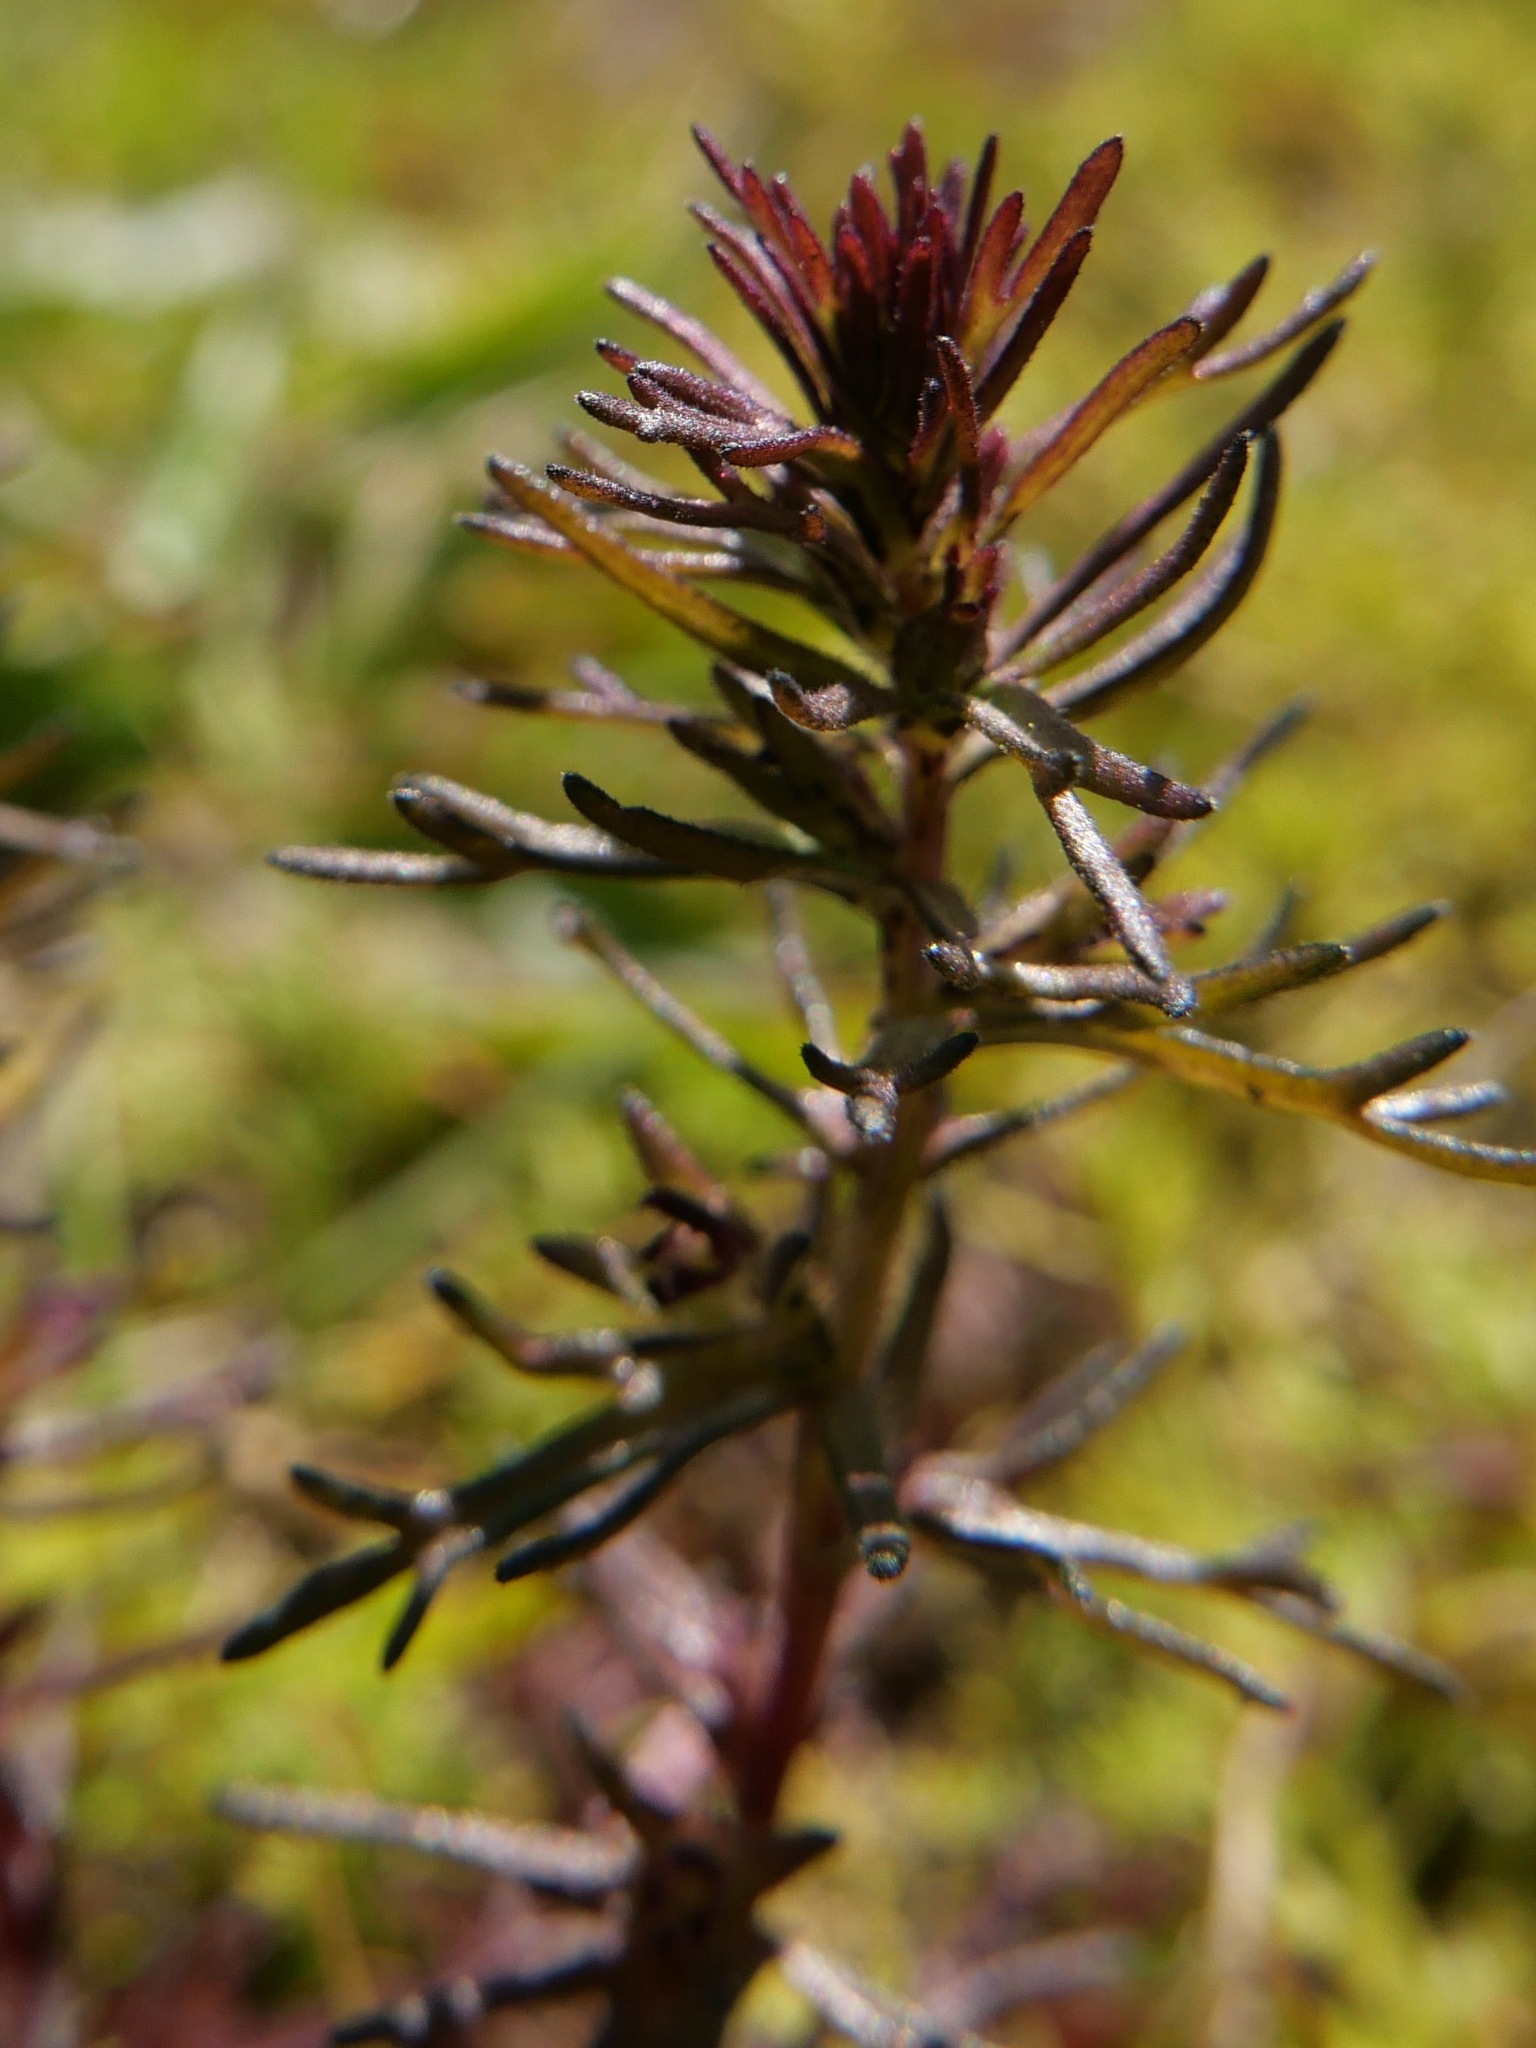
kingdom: Plantae
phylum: Tracheophyta
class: Magnoliopsida
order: Lamiales
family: Orobanchaceae
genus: Triphysaria
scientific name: Triphysaria pusilla
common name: Dwarf false owl-clover
